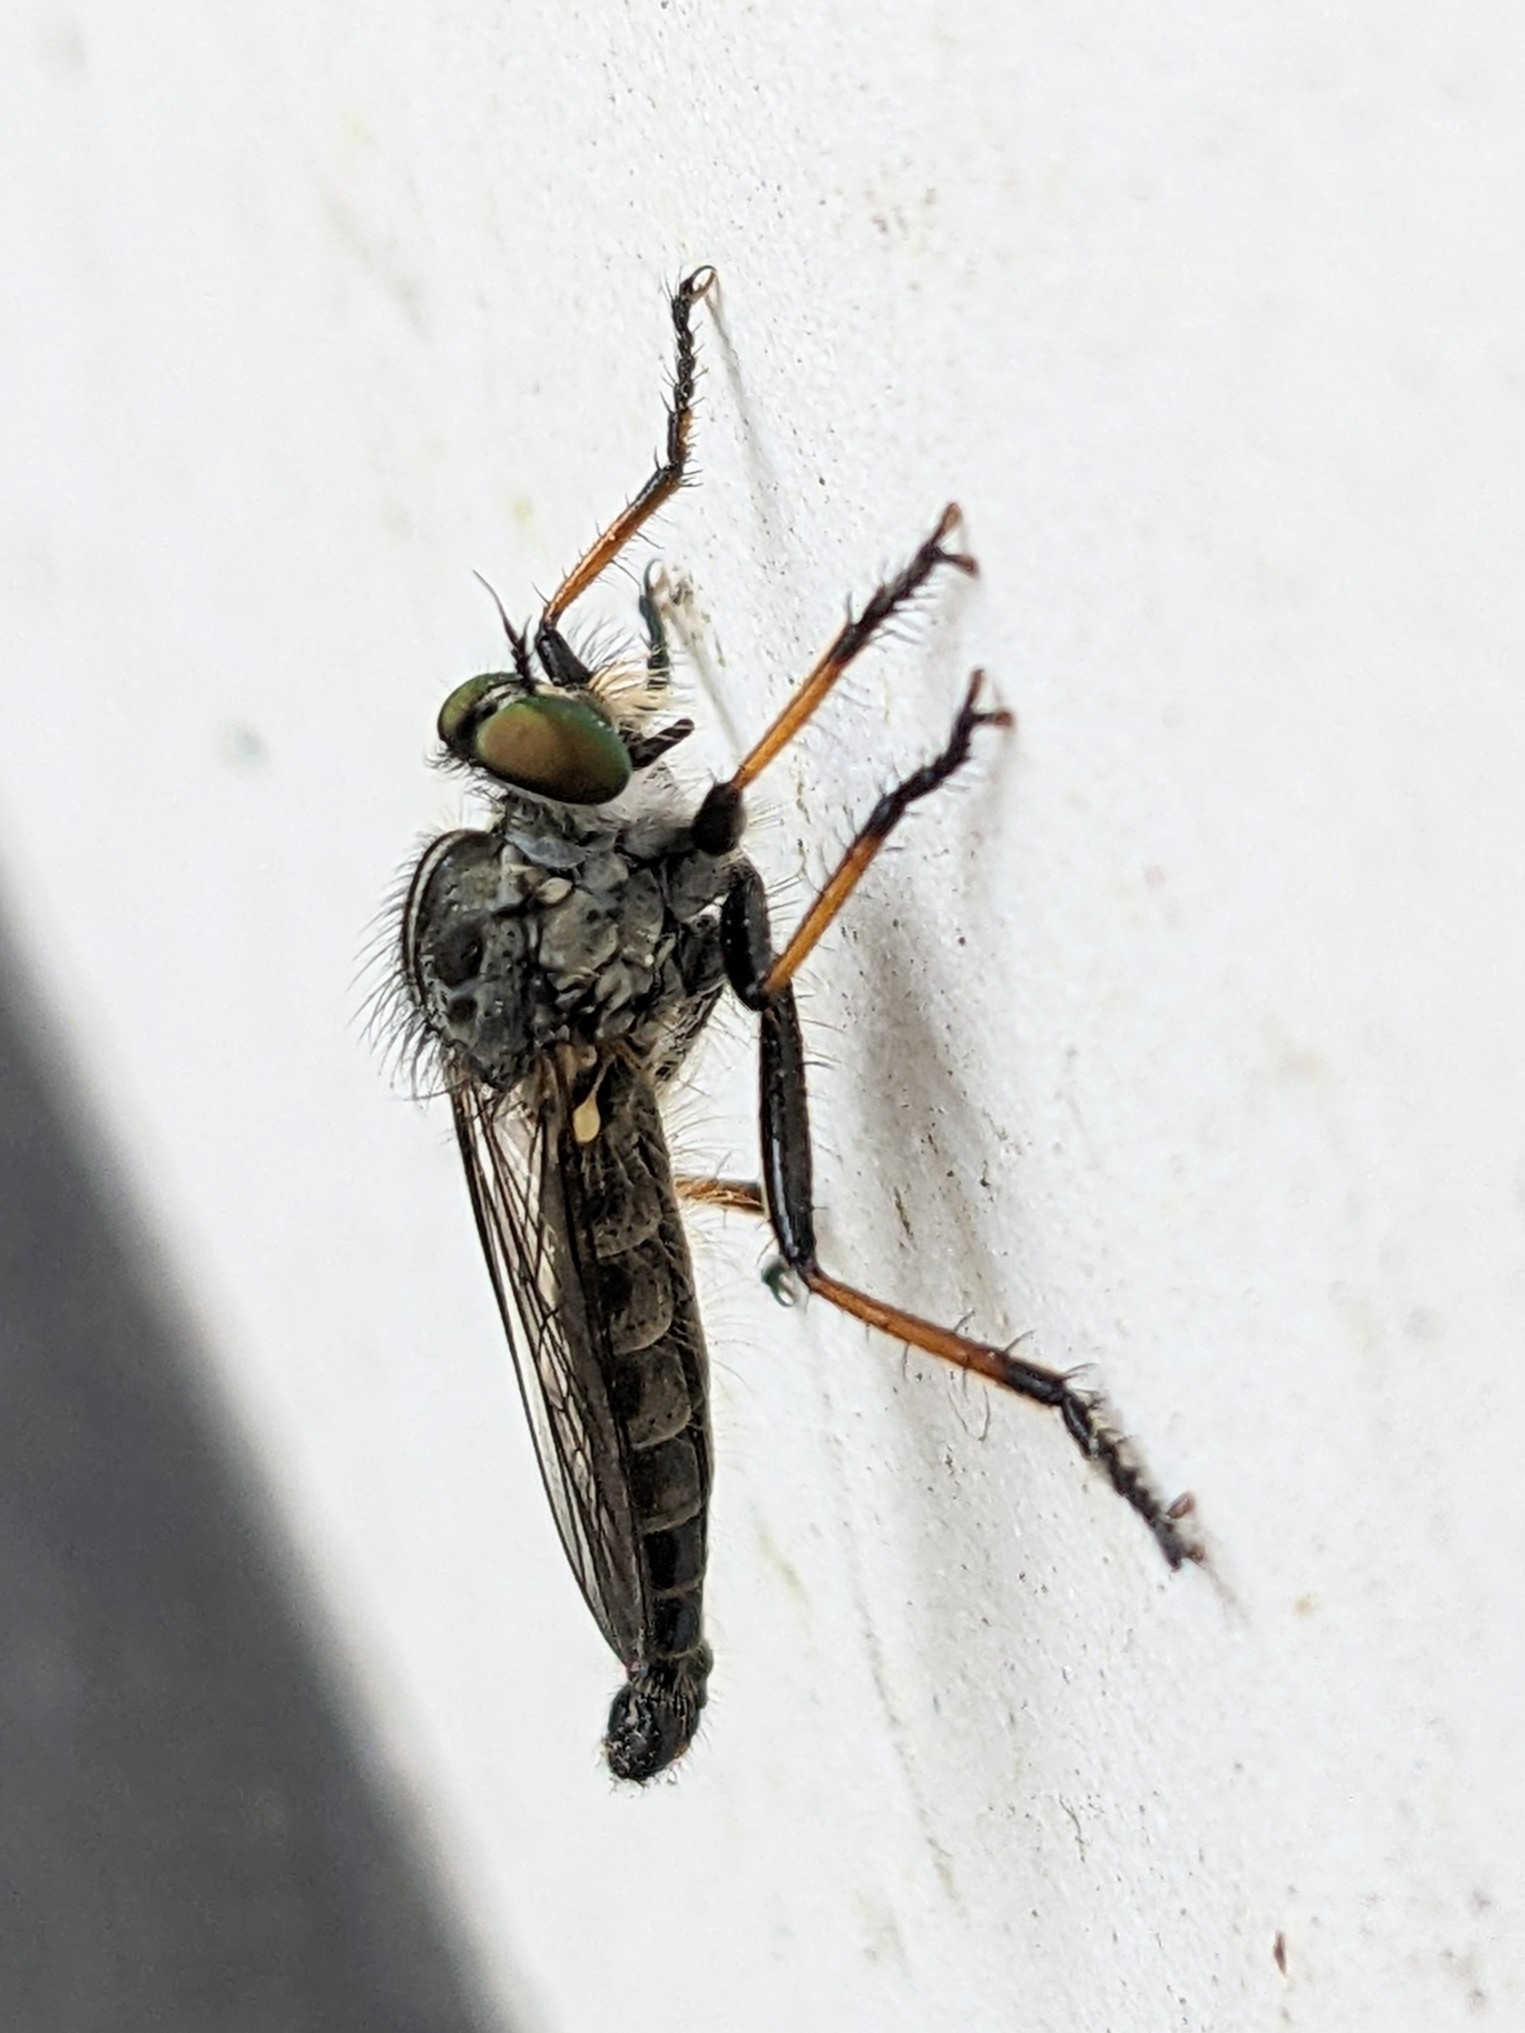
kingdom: Animalia
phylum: Arthropoda
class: Insecta
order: Diptera
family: Asilidae
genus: Neoitamus
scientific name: Neoitamus cyanurus
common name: Common awl robberfly
